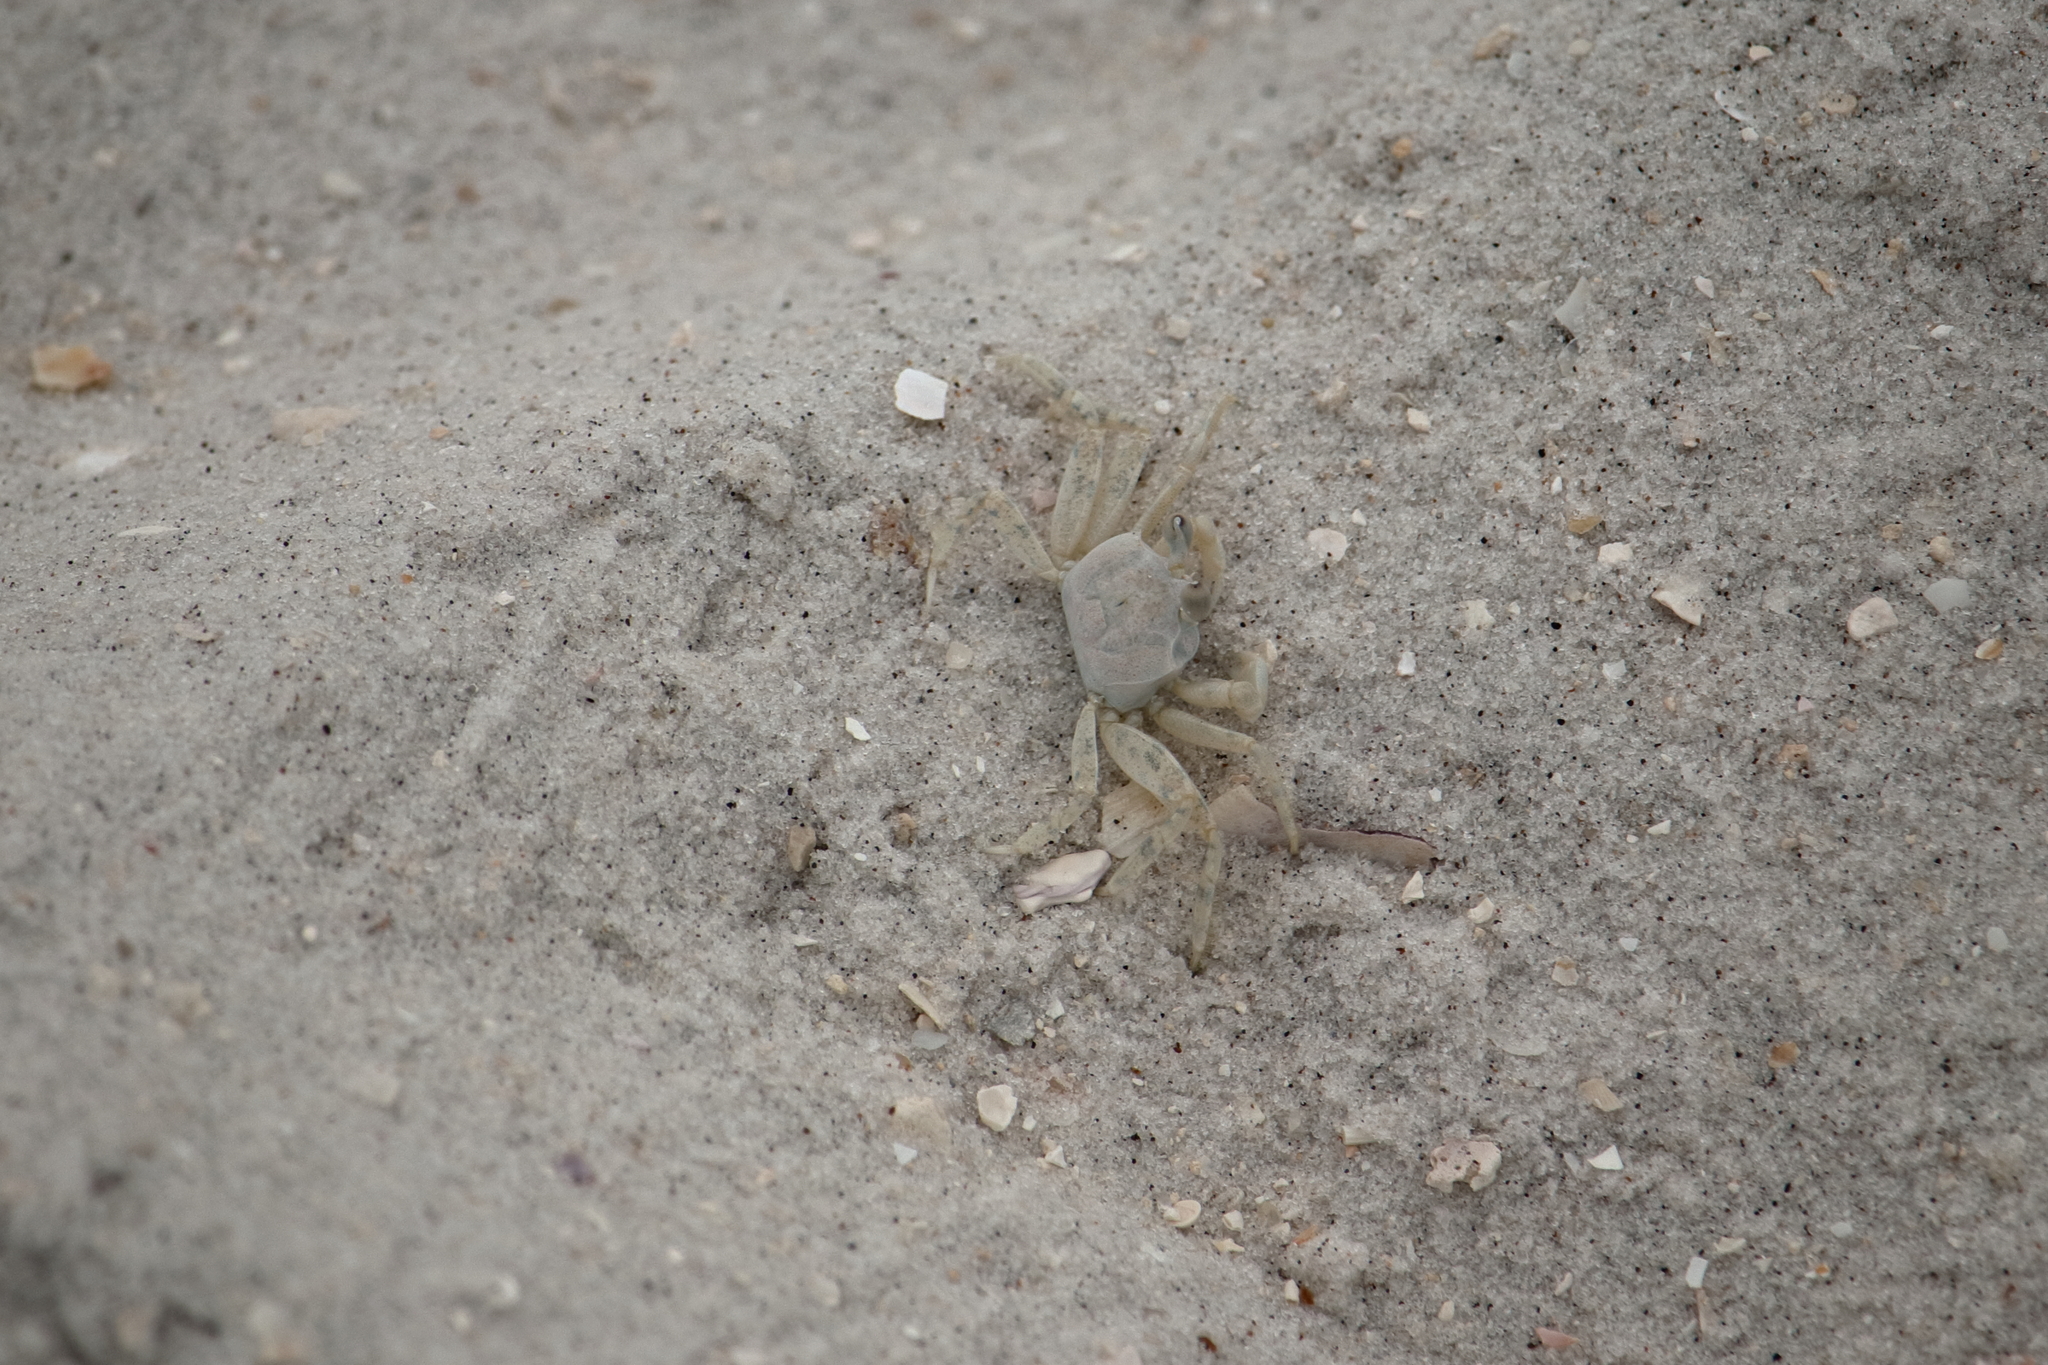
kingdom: Animalia
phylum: Arthropoda
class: Malacostraca
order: Decapoda
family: Ocypodidae
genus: Ocypode
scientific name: Ocypode quadrata
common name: Ghost crab
